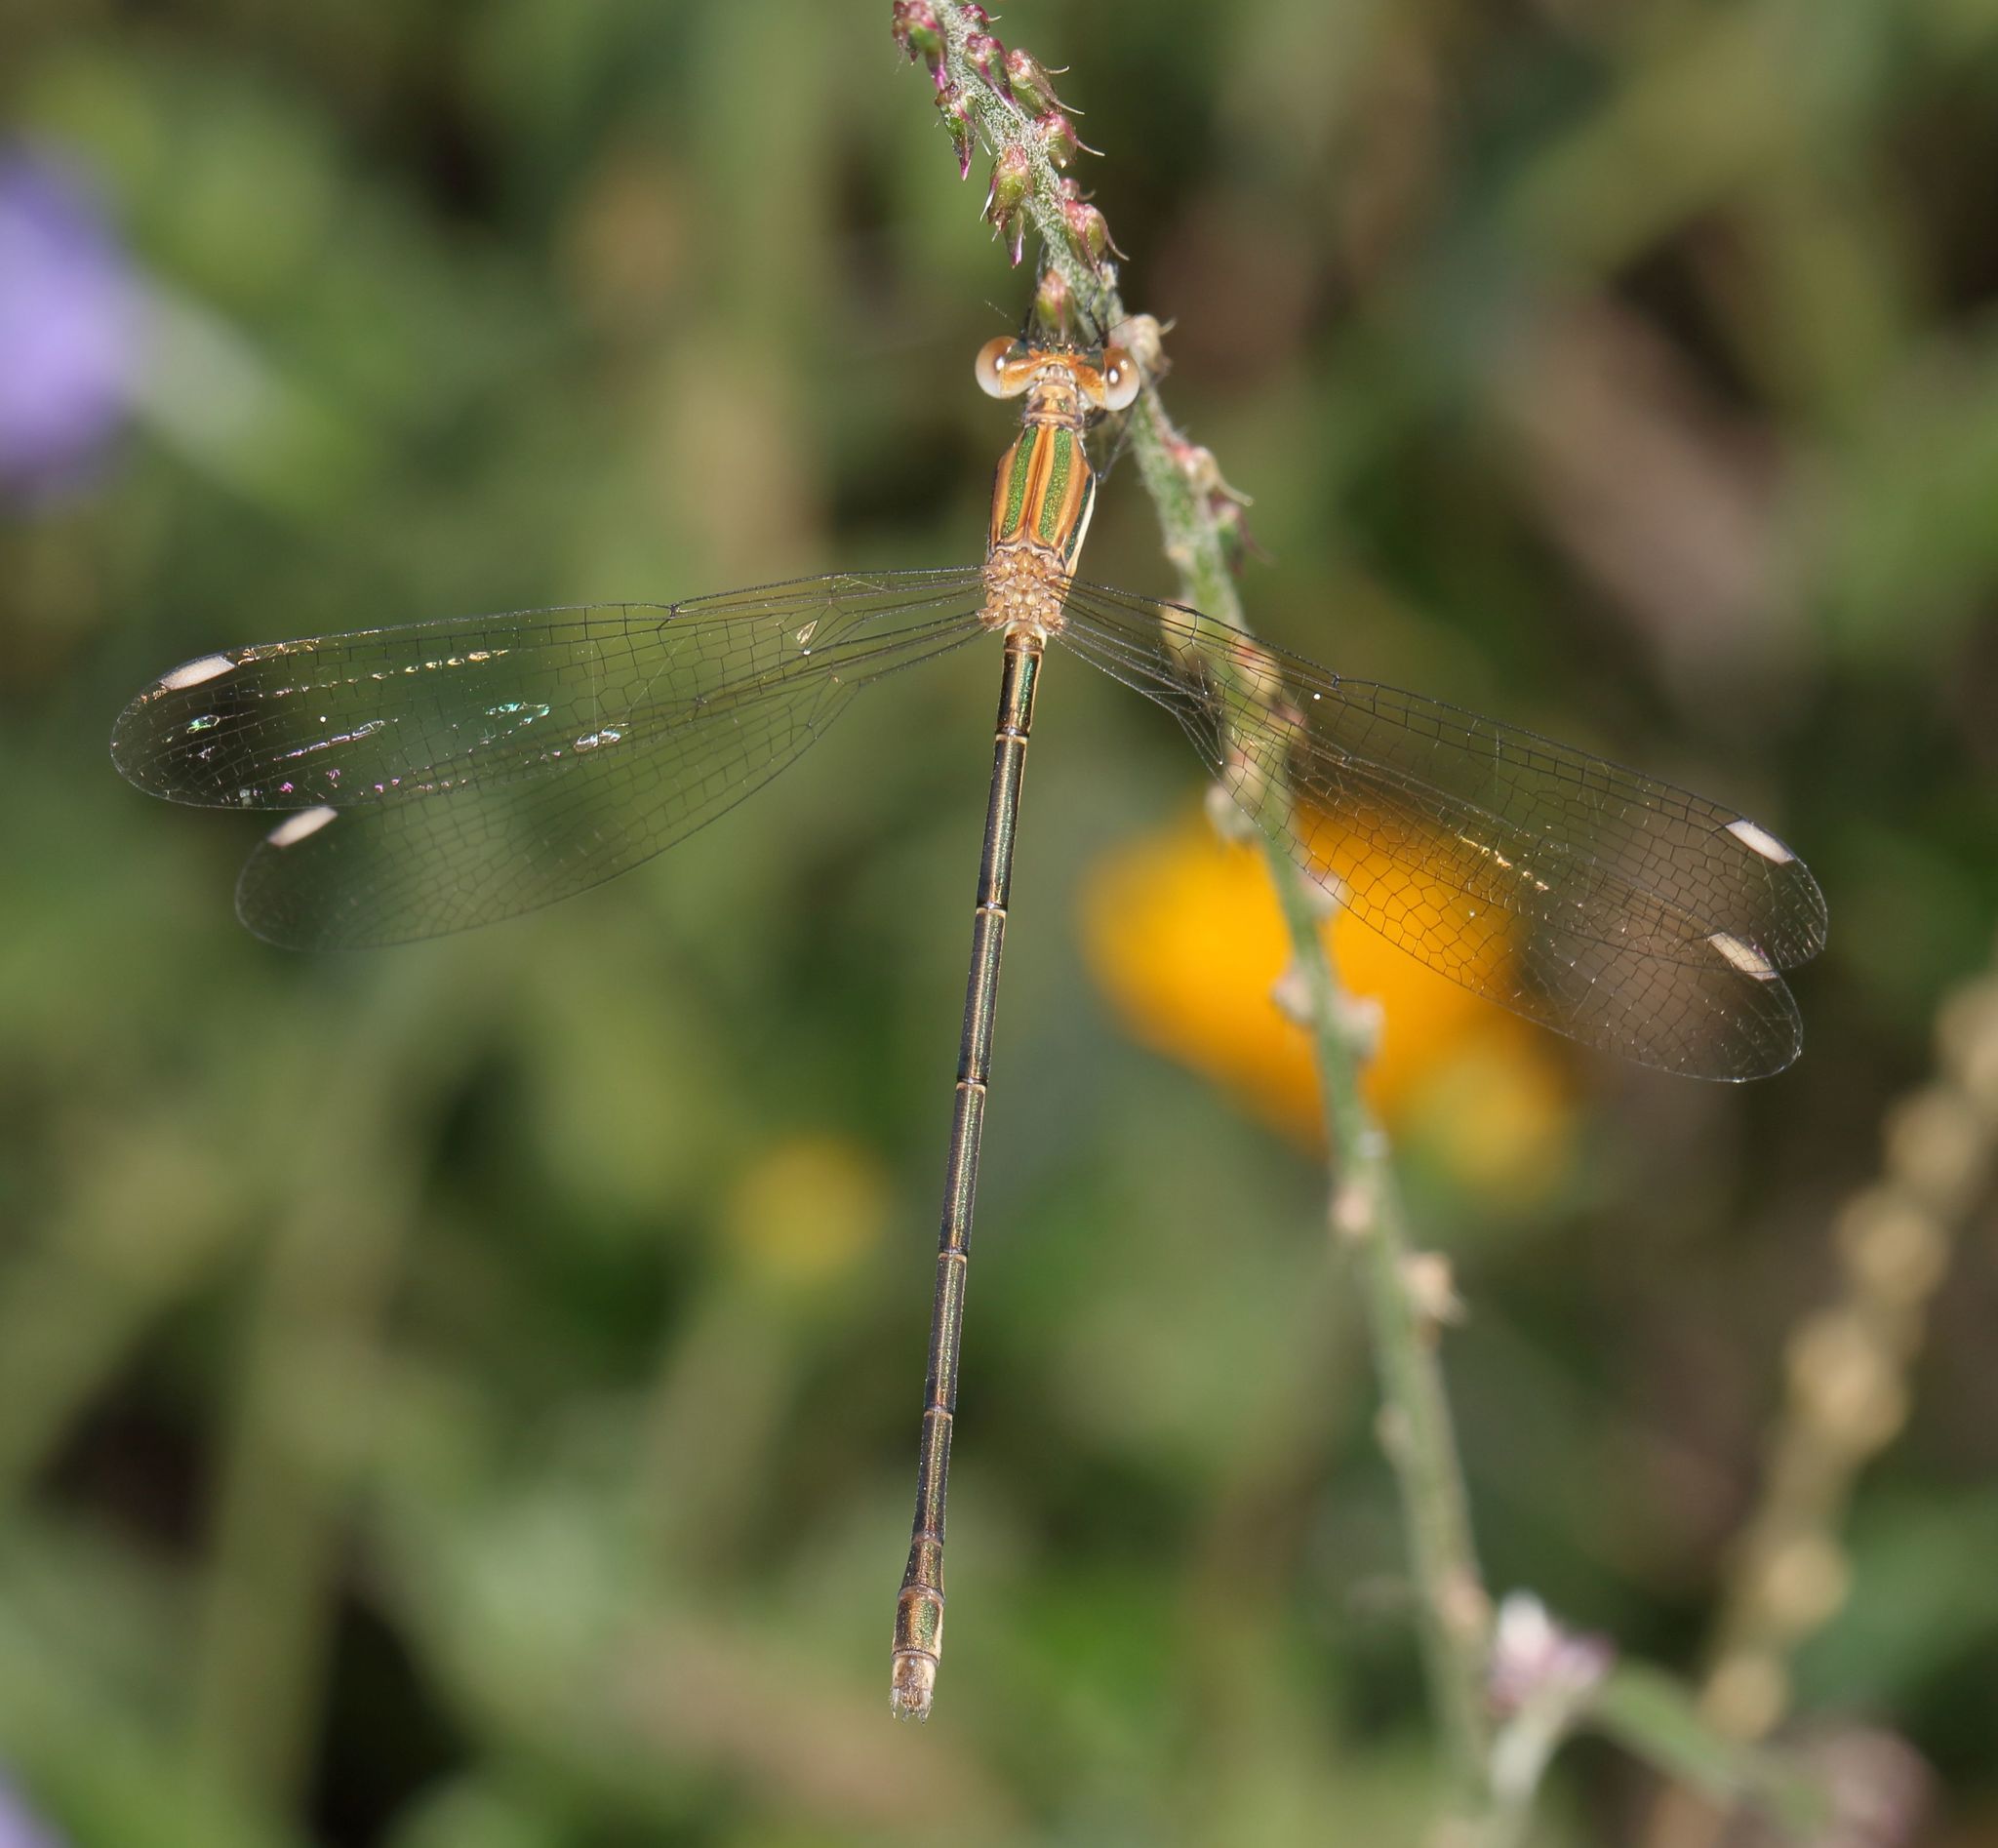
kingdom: Animalia
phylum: Arthropoda
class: Insecta
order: Odonata
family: Lestidae
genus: Lestes
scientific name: Lestes virgatus
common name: Smoky spreadwing
